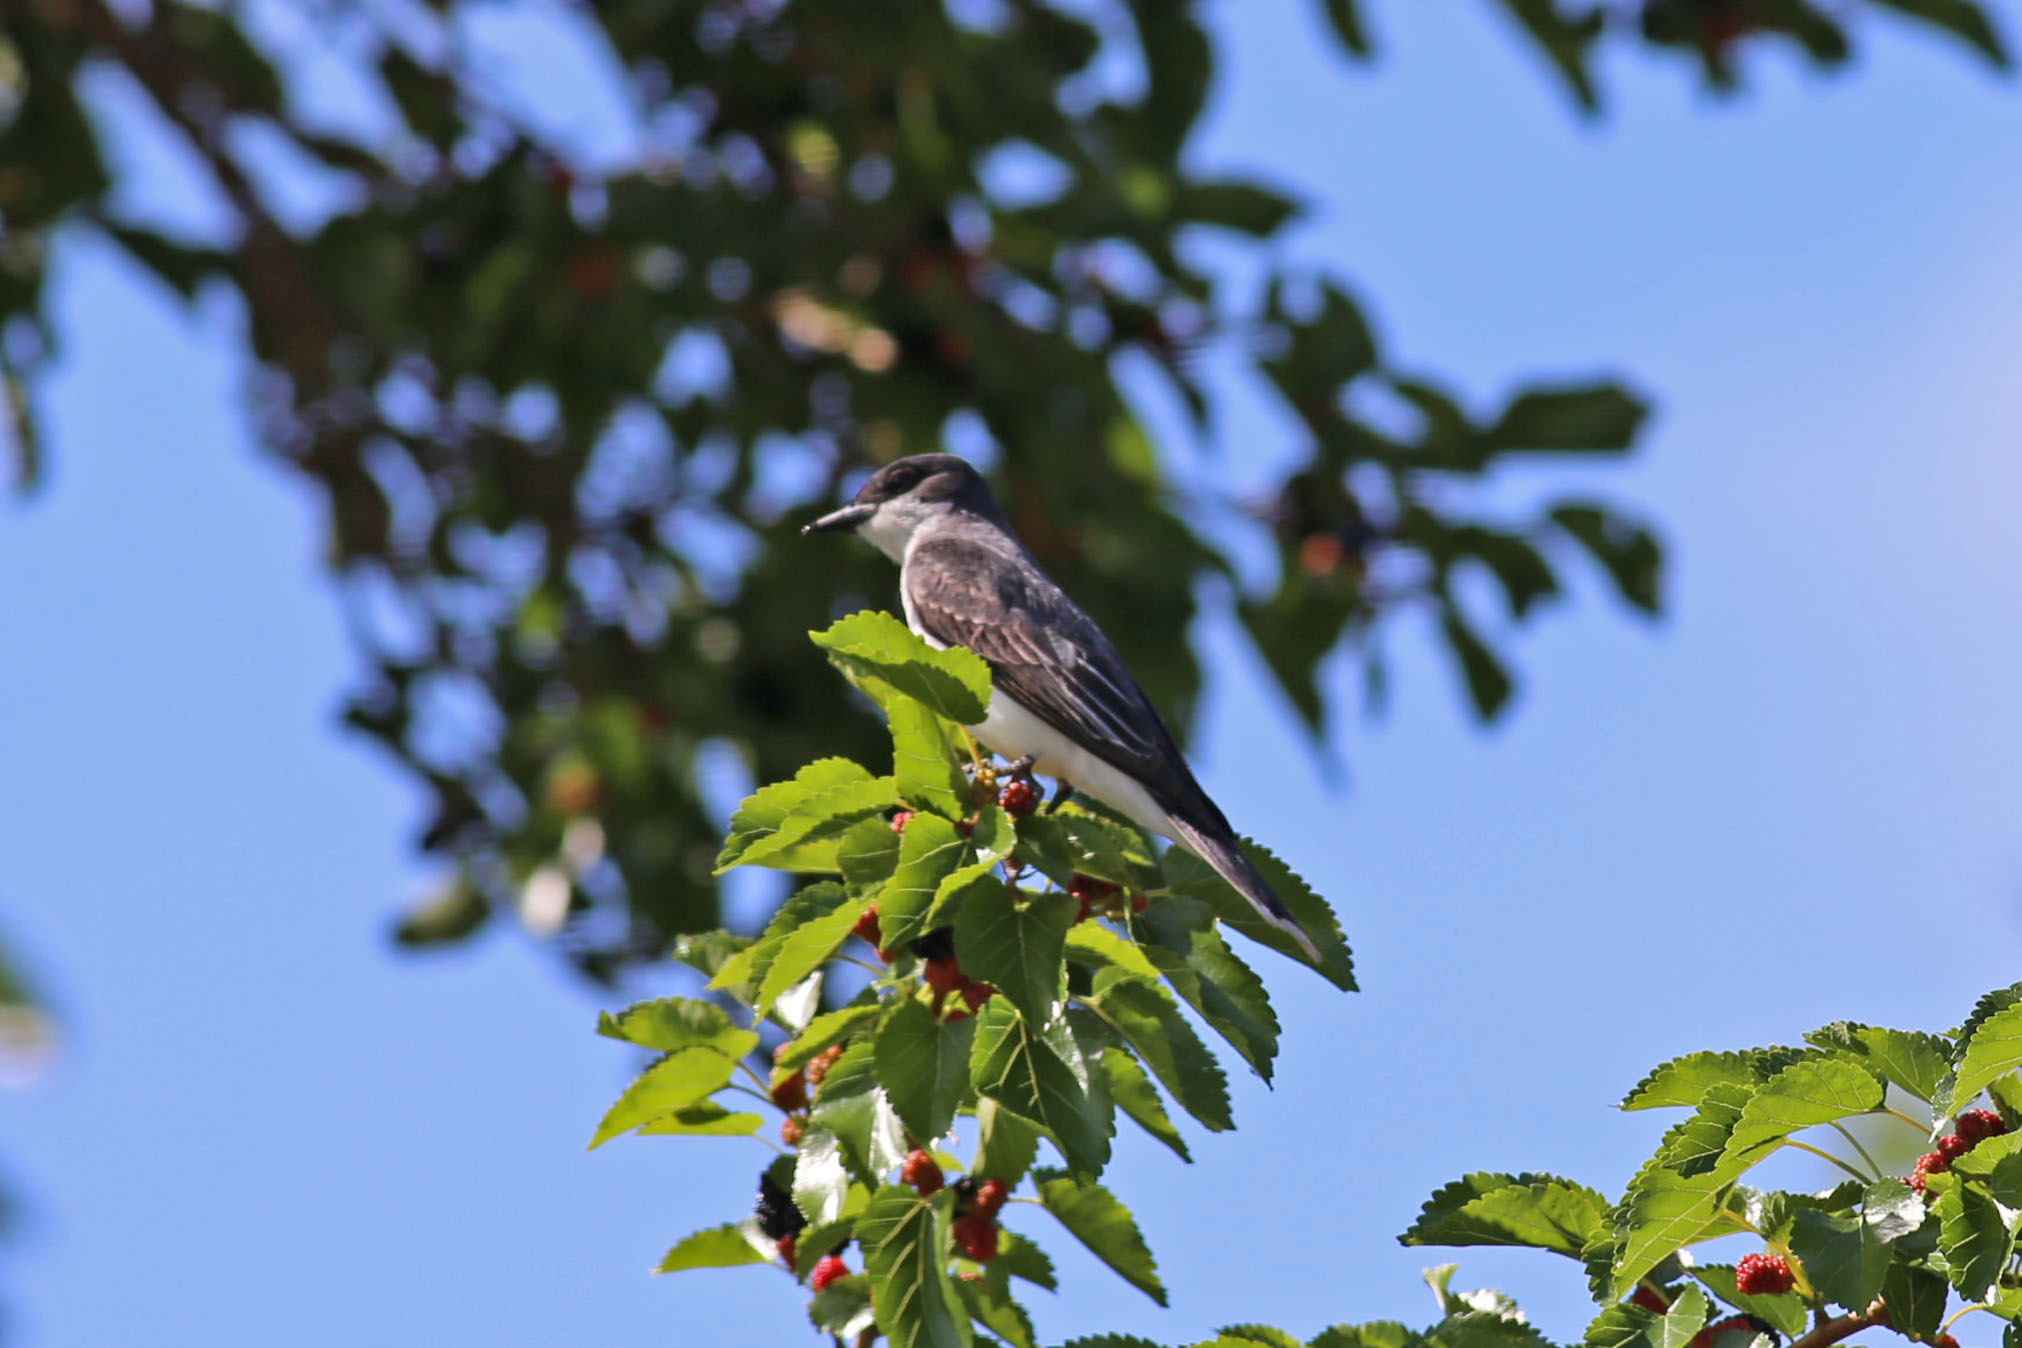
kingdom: Animalia
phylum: Chordata
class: Aves
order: Passeriformes
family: Tyrannidae
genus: Tyrannus
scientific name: Tyrannus tyrannus
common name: Eastern kingbird
